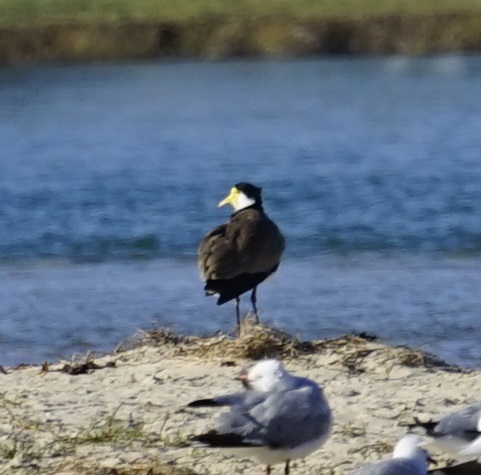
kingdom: Animalia
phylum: Chordata
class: Aves
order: Charadriiformes
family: Charadriidae
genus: Vanellus
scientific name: Vanellus miles
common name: Masked lapwing
